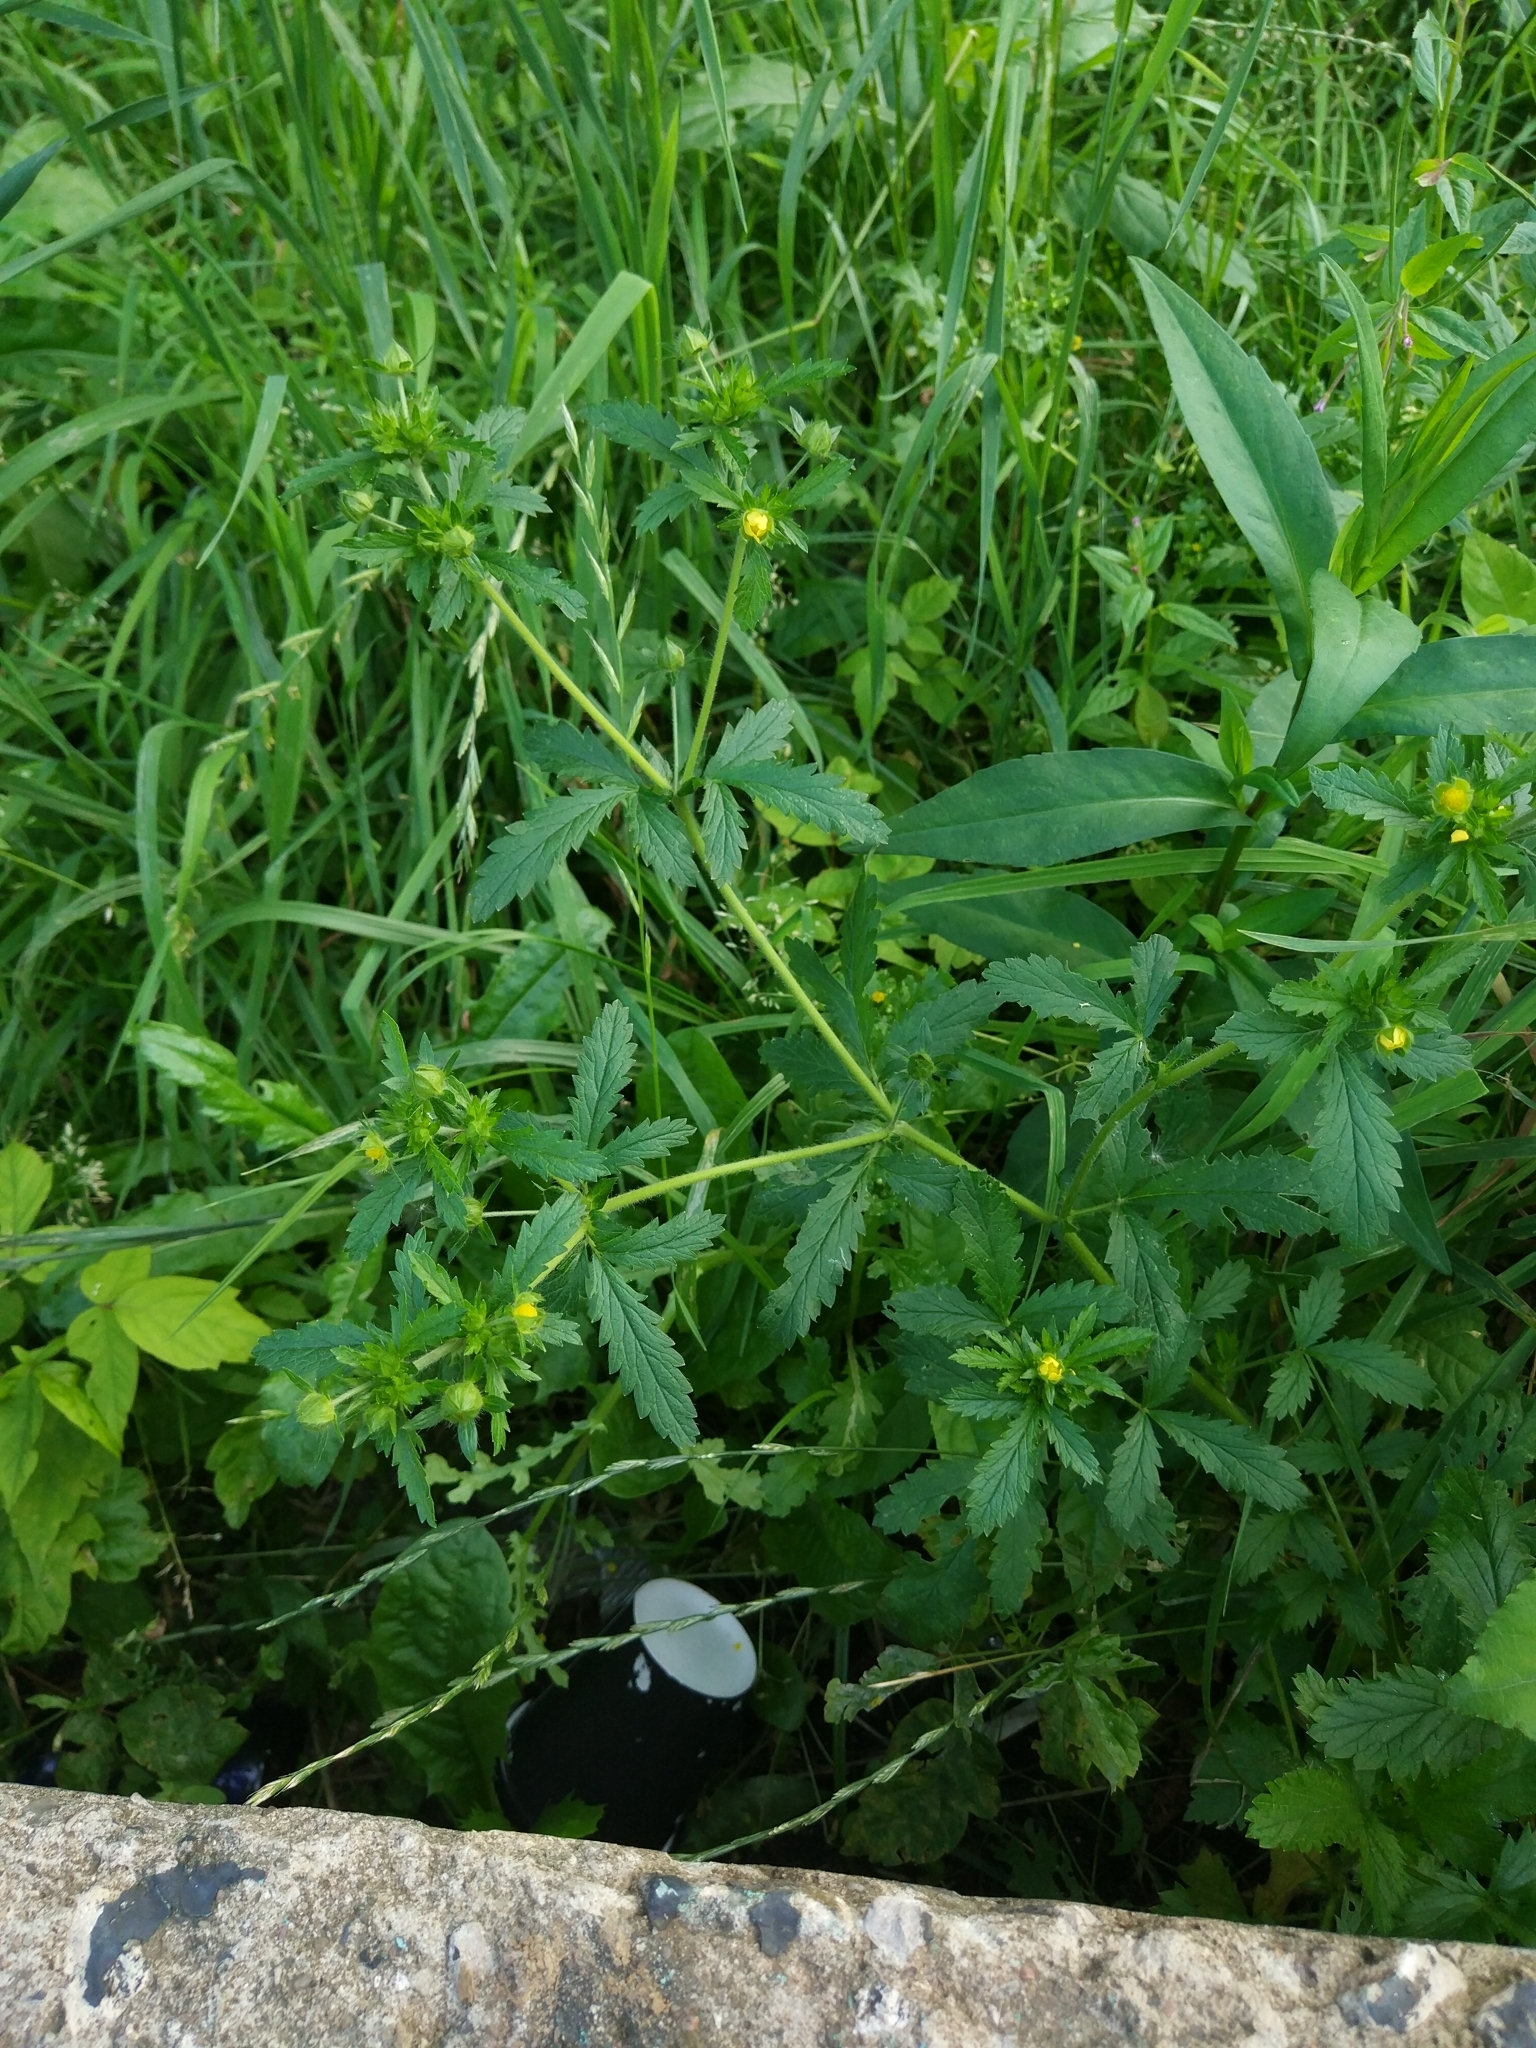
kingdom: Plantae
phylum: Tracheophyta
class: Magnoliopsida
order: Rosales
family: Rosaceae
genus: Potentilla
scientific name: Potentilla norvegica
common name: Ternate-leaved cinquefoil
